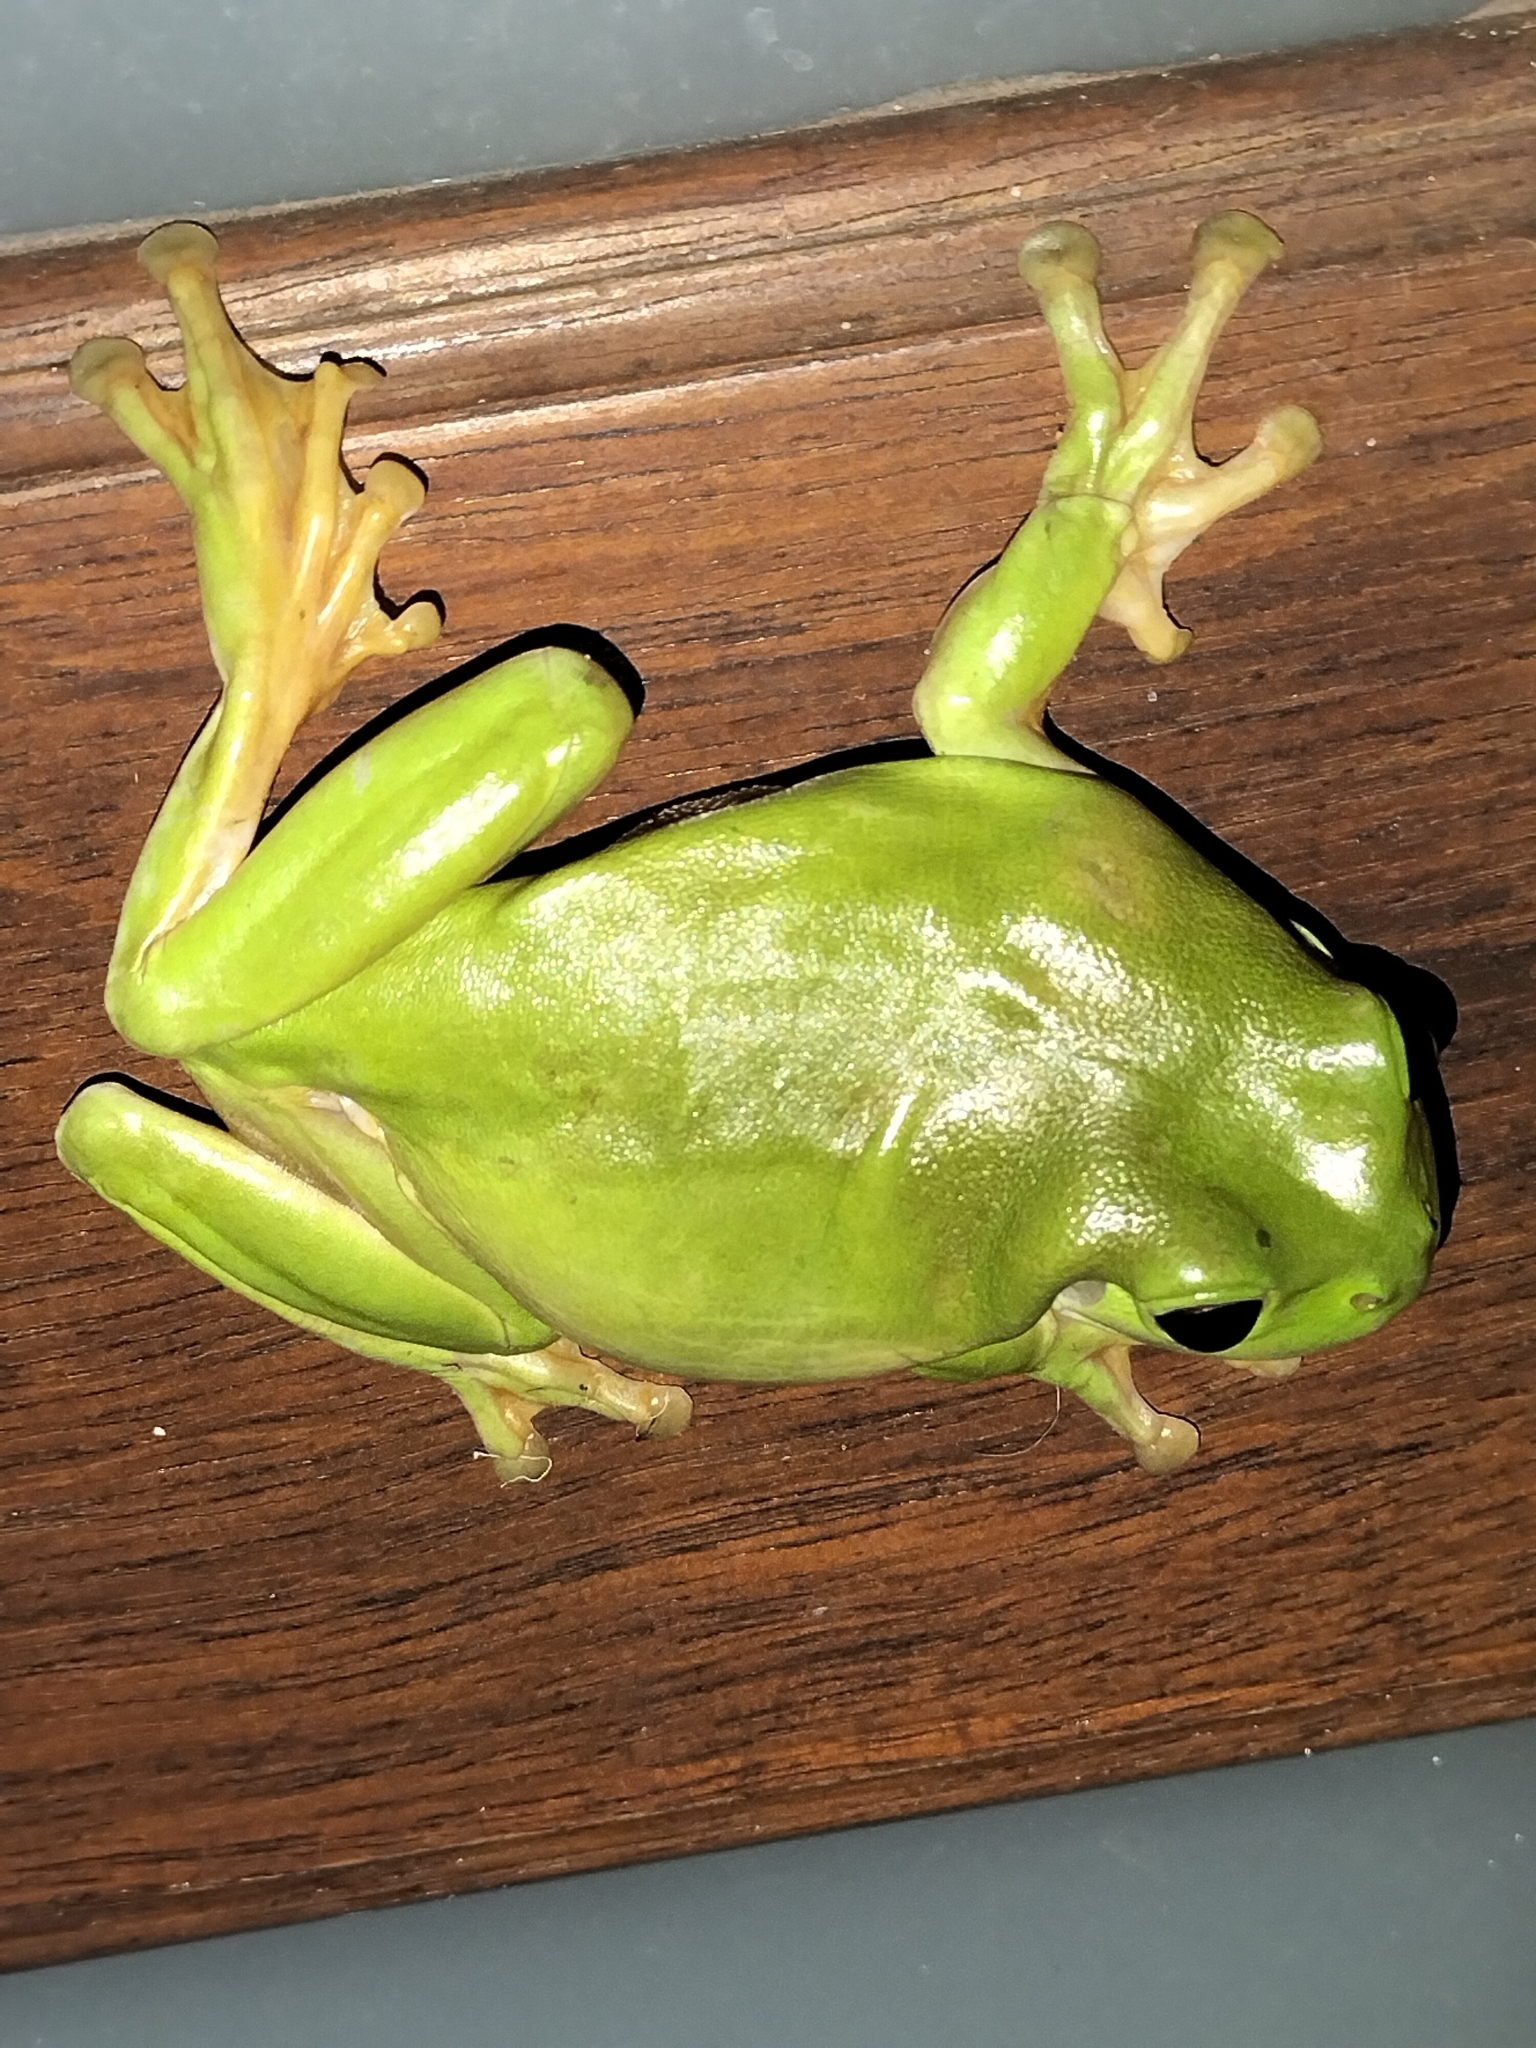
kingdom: Animalia
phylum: Chordata
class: Amphibia
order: Anura
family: Pelodryadidae
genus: Ranoidea
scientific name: Ranoidea caerulea
